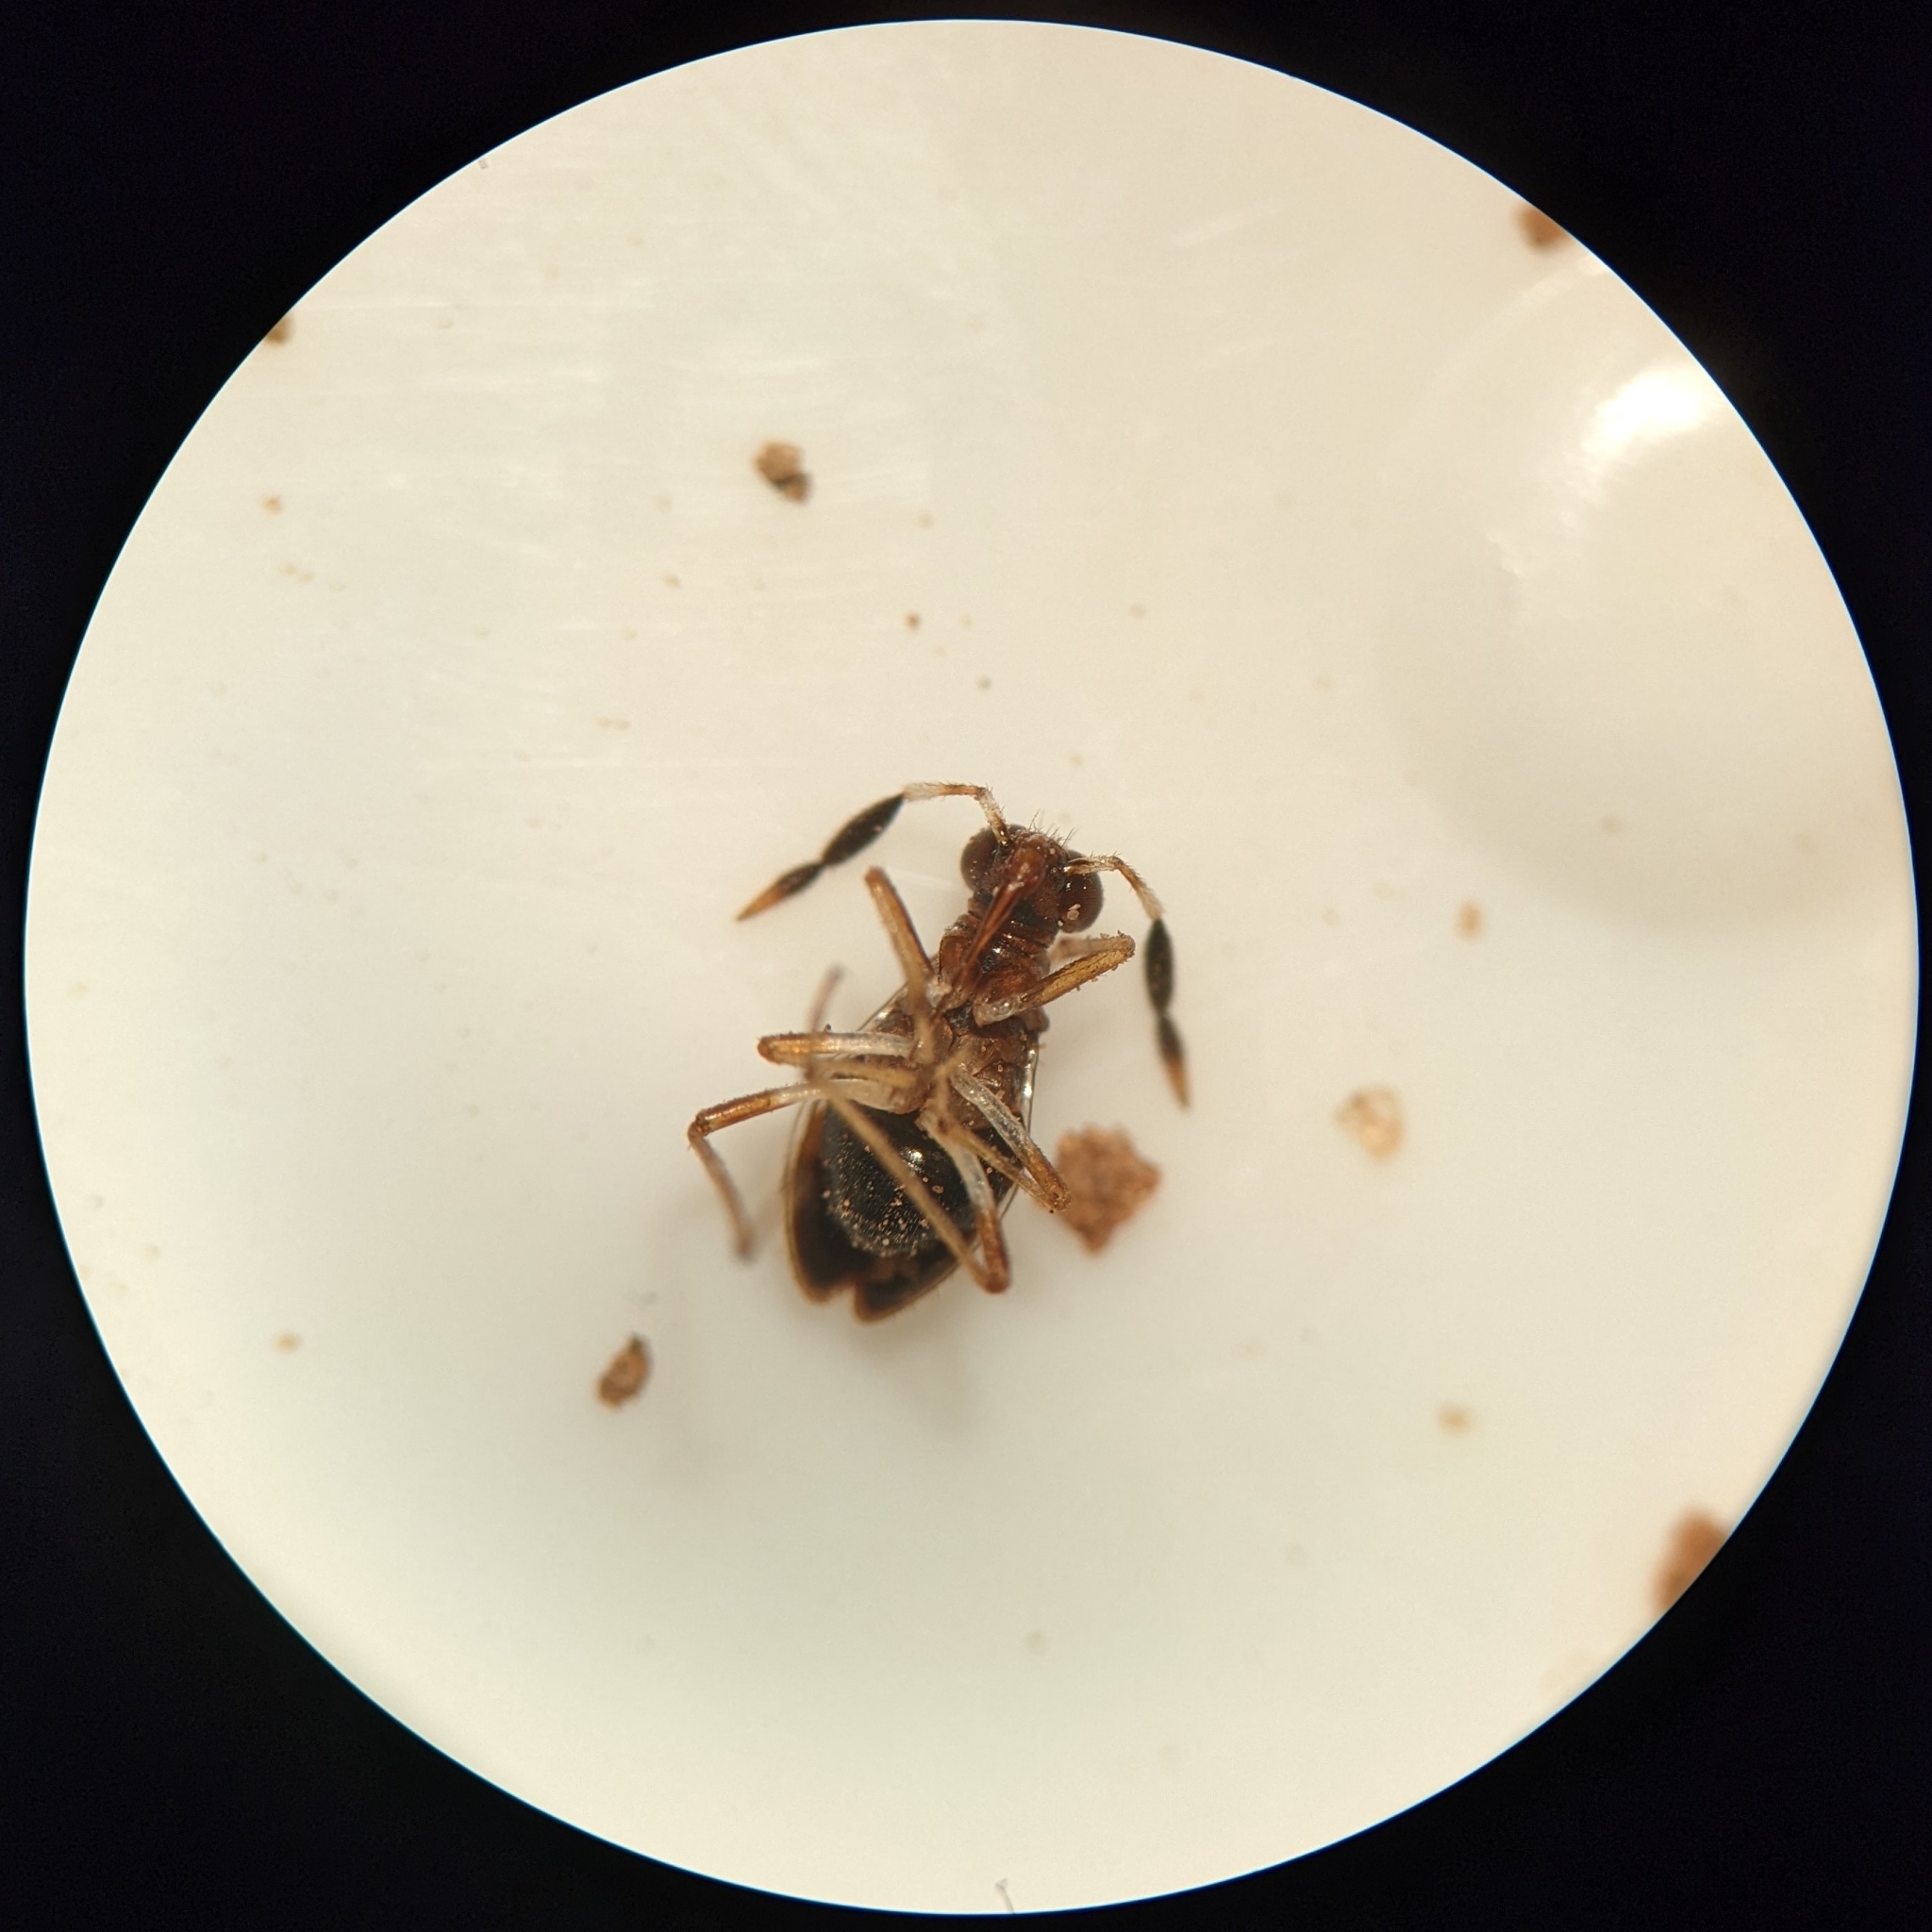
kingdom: Animalia
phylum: Arthropoda
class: Insecta
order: Hemiptera
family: Saldidae
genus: Saldoida
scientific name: Saldoida slossonae
